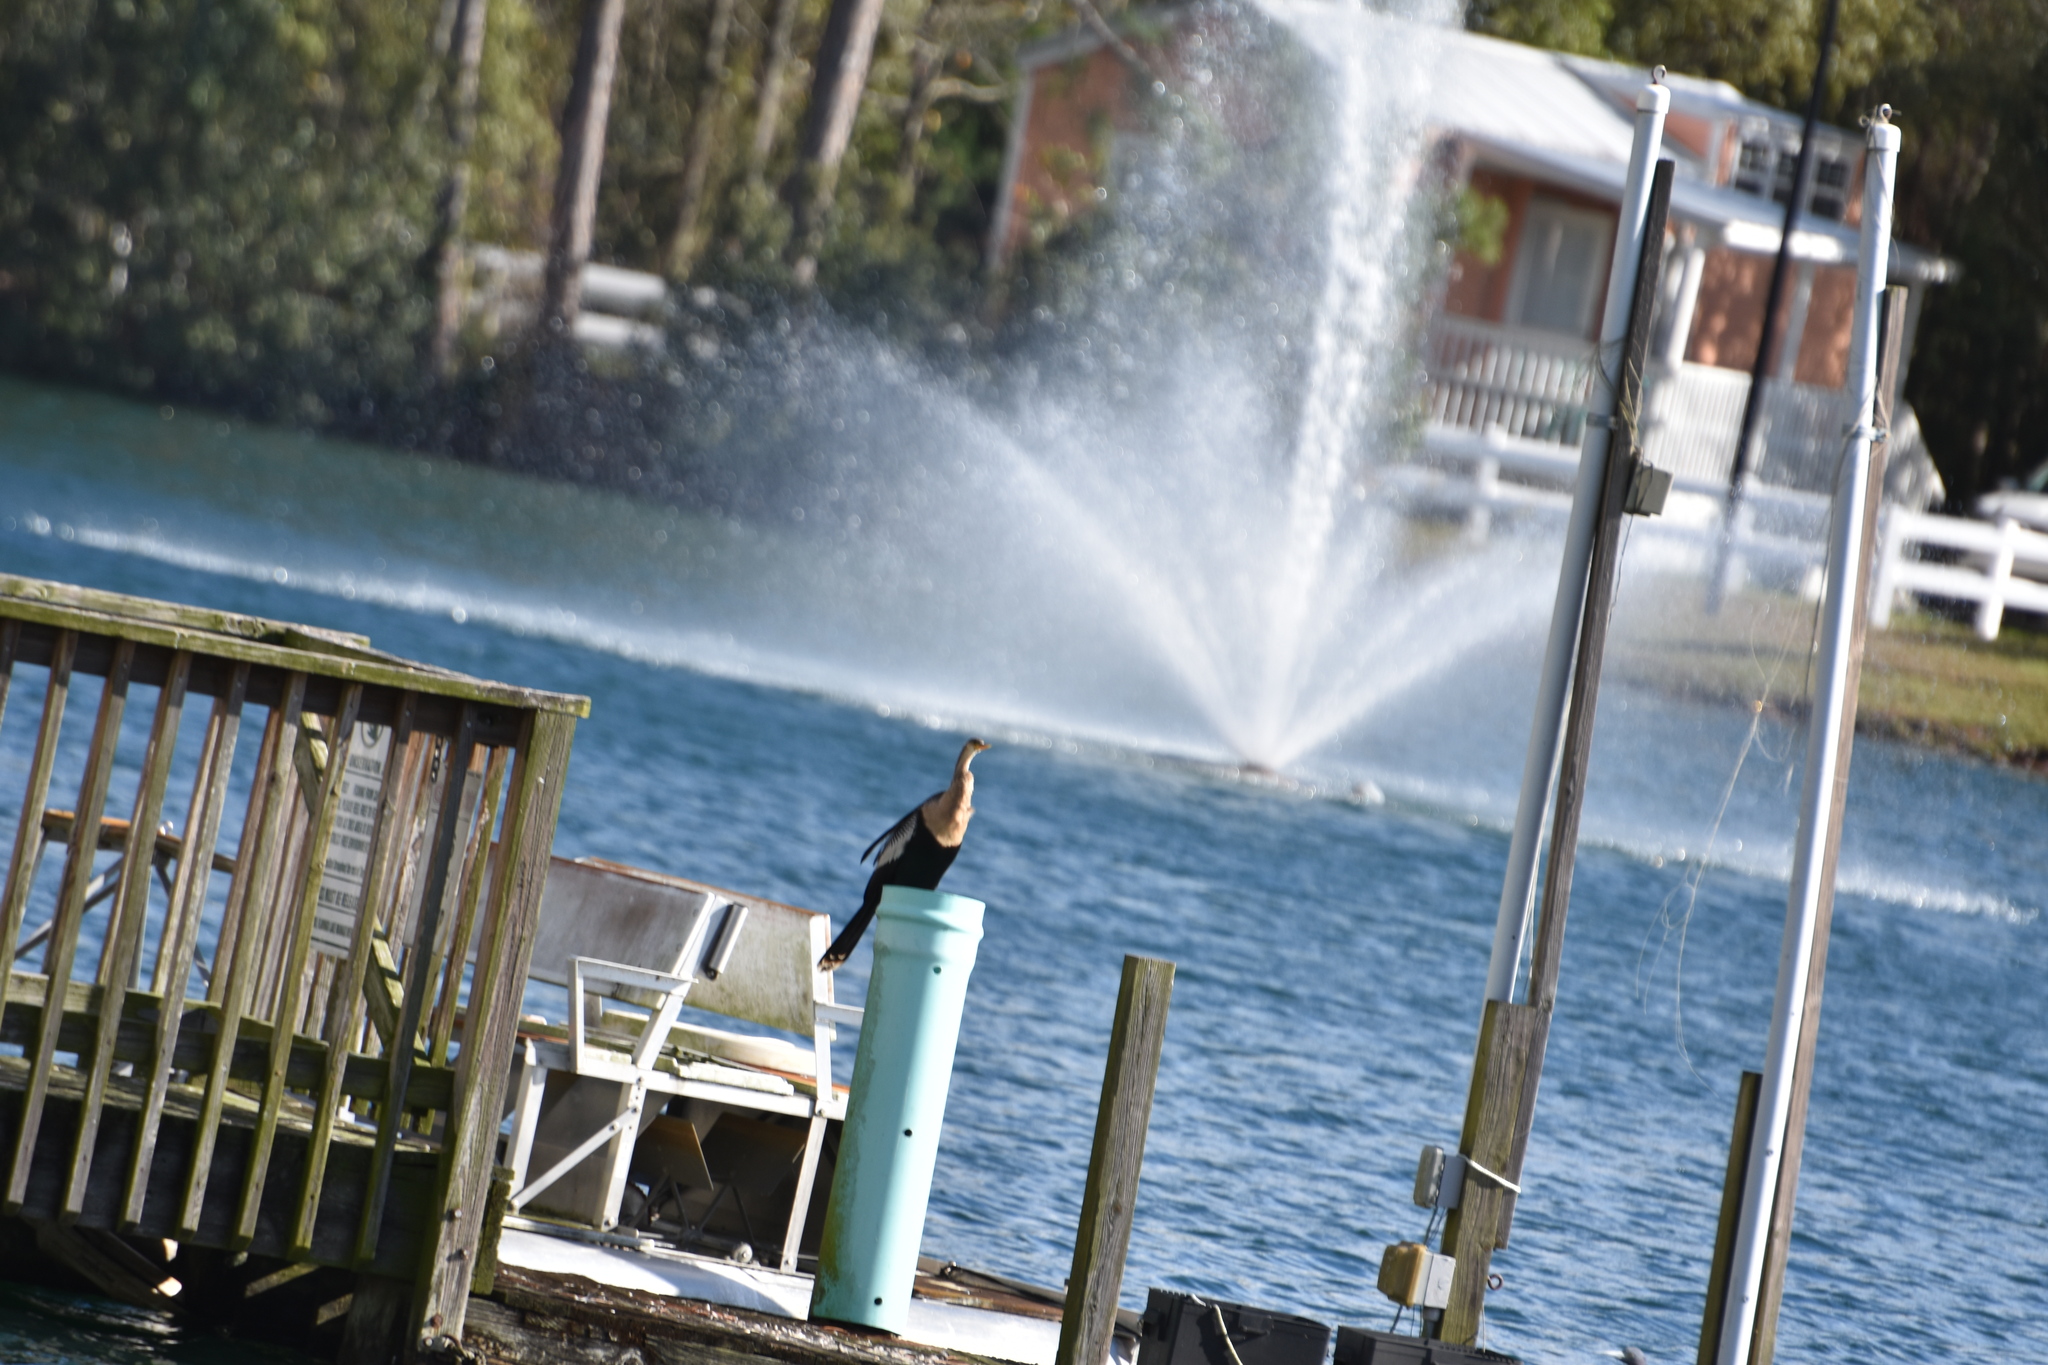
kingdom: Animalia
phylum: Chordata
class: Aves
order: Suliformes
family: Anhingidae
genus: Anhinga
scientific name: Anhinga anhinga
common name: Anhinga
